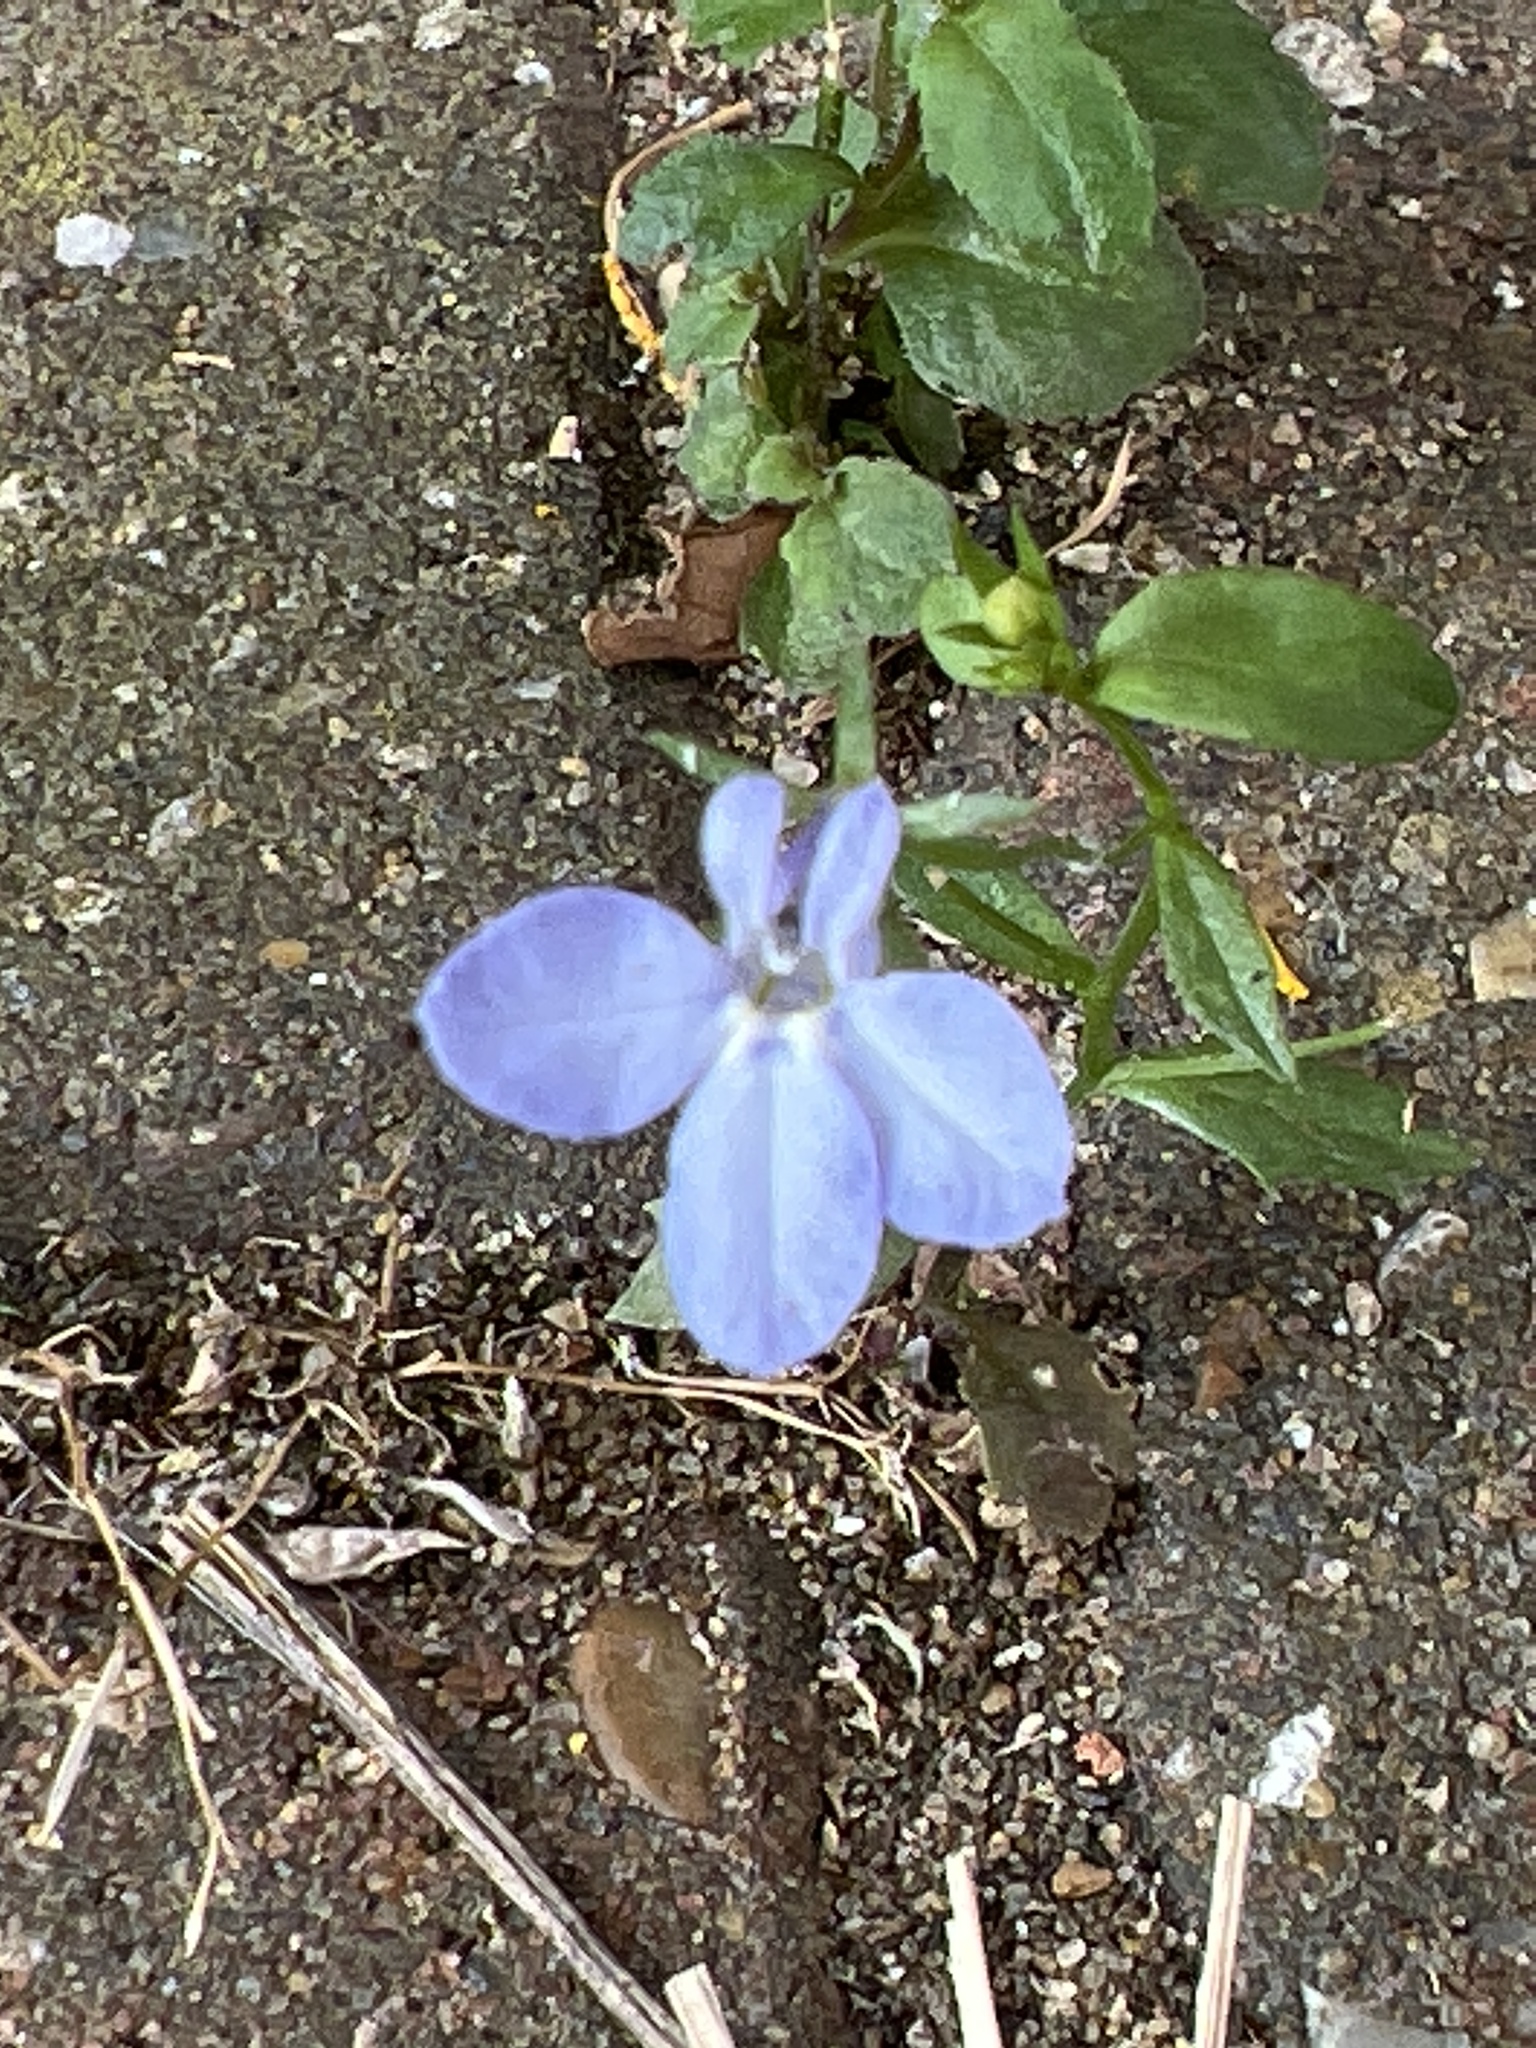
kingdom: Plantae
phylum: Tracheophyta
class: Magnoliopsida
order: Asterales
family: Campanulaceae
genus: Lobelia
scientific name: Lobelia erinus
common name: Edging lobelia
